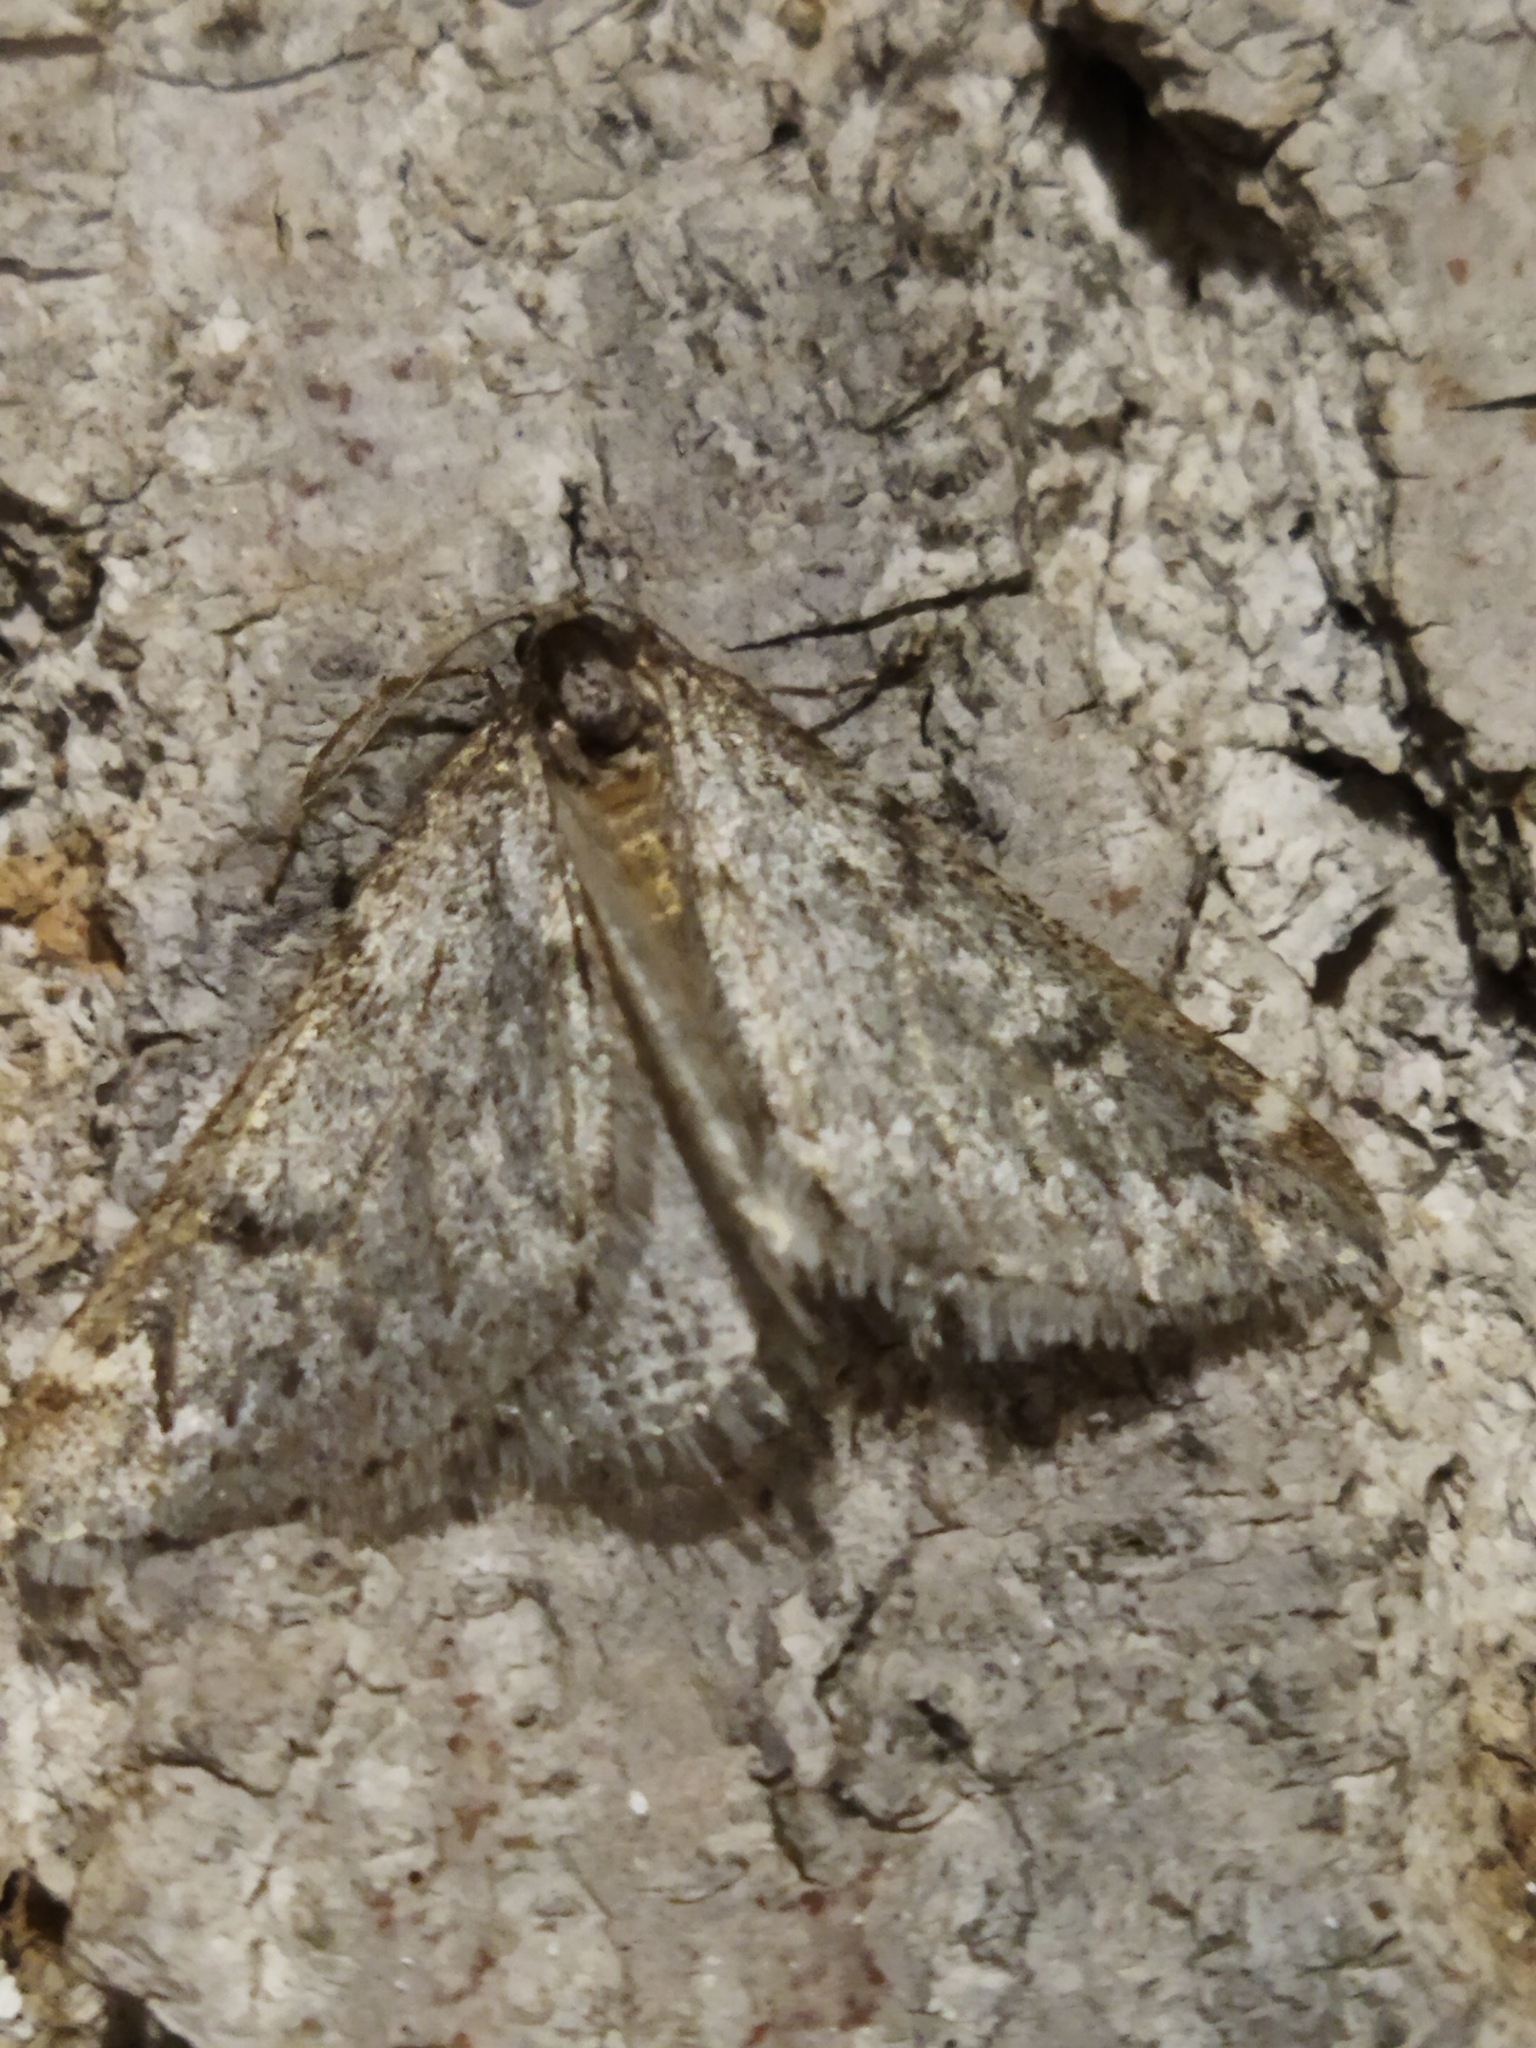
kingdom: Animalia
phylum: Arthropoda
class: Insecta
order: Lepidoptera
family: Geometridae
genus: Alsophila
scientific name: Alsophila aescularia
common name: March moth
